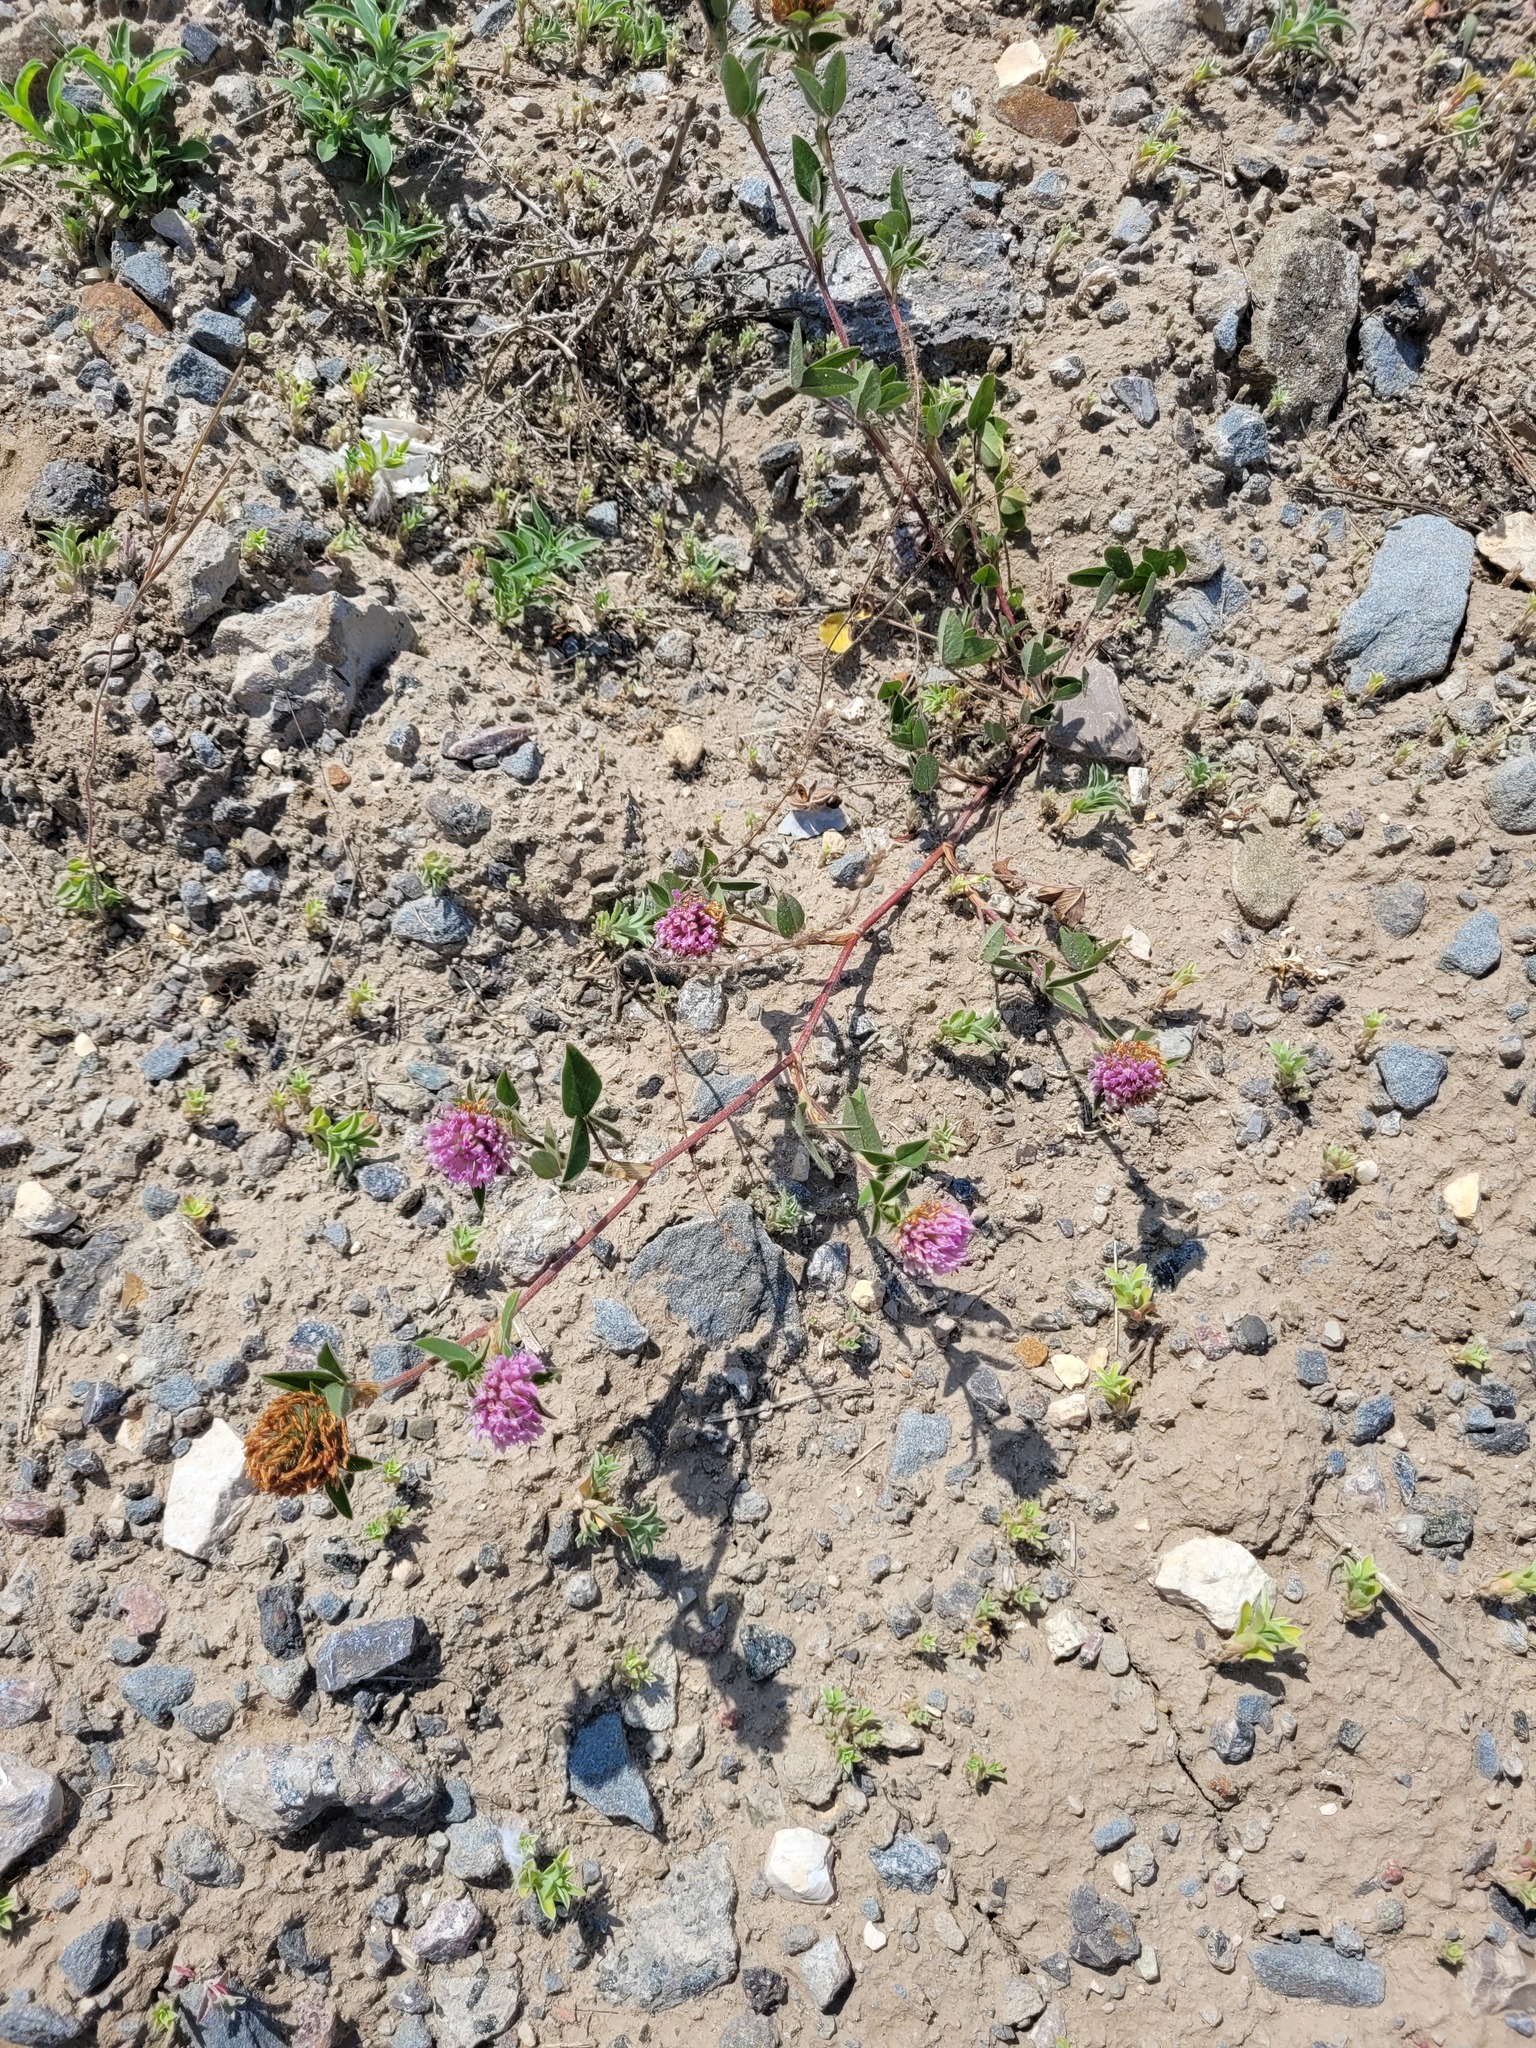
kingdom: Plantae
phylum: Tracheophyta
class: Magnoliopsida
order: Fabales
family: Fabaceae
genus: Trifolium
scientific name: Trifolium pratense
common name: Red clover
